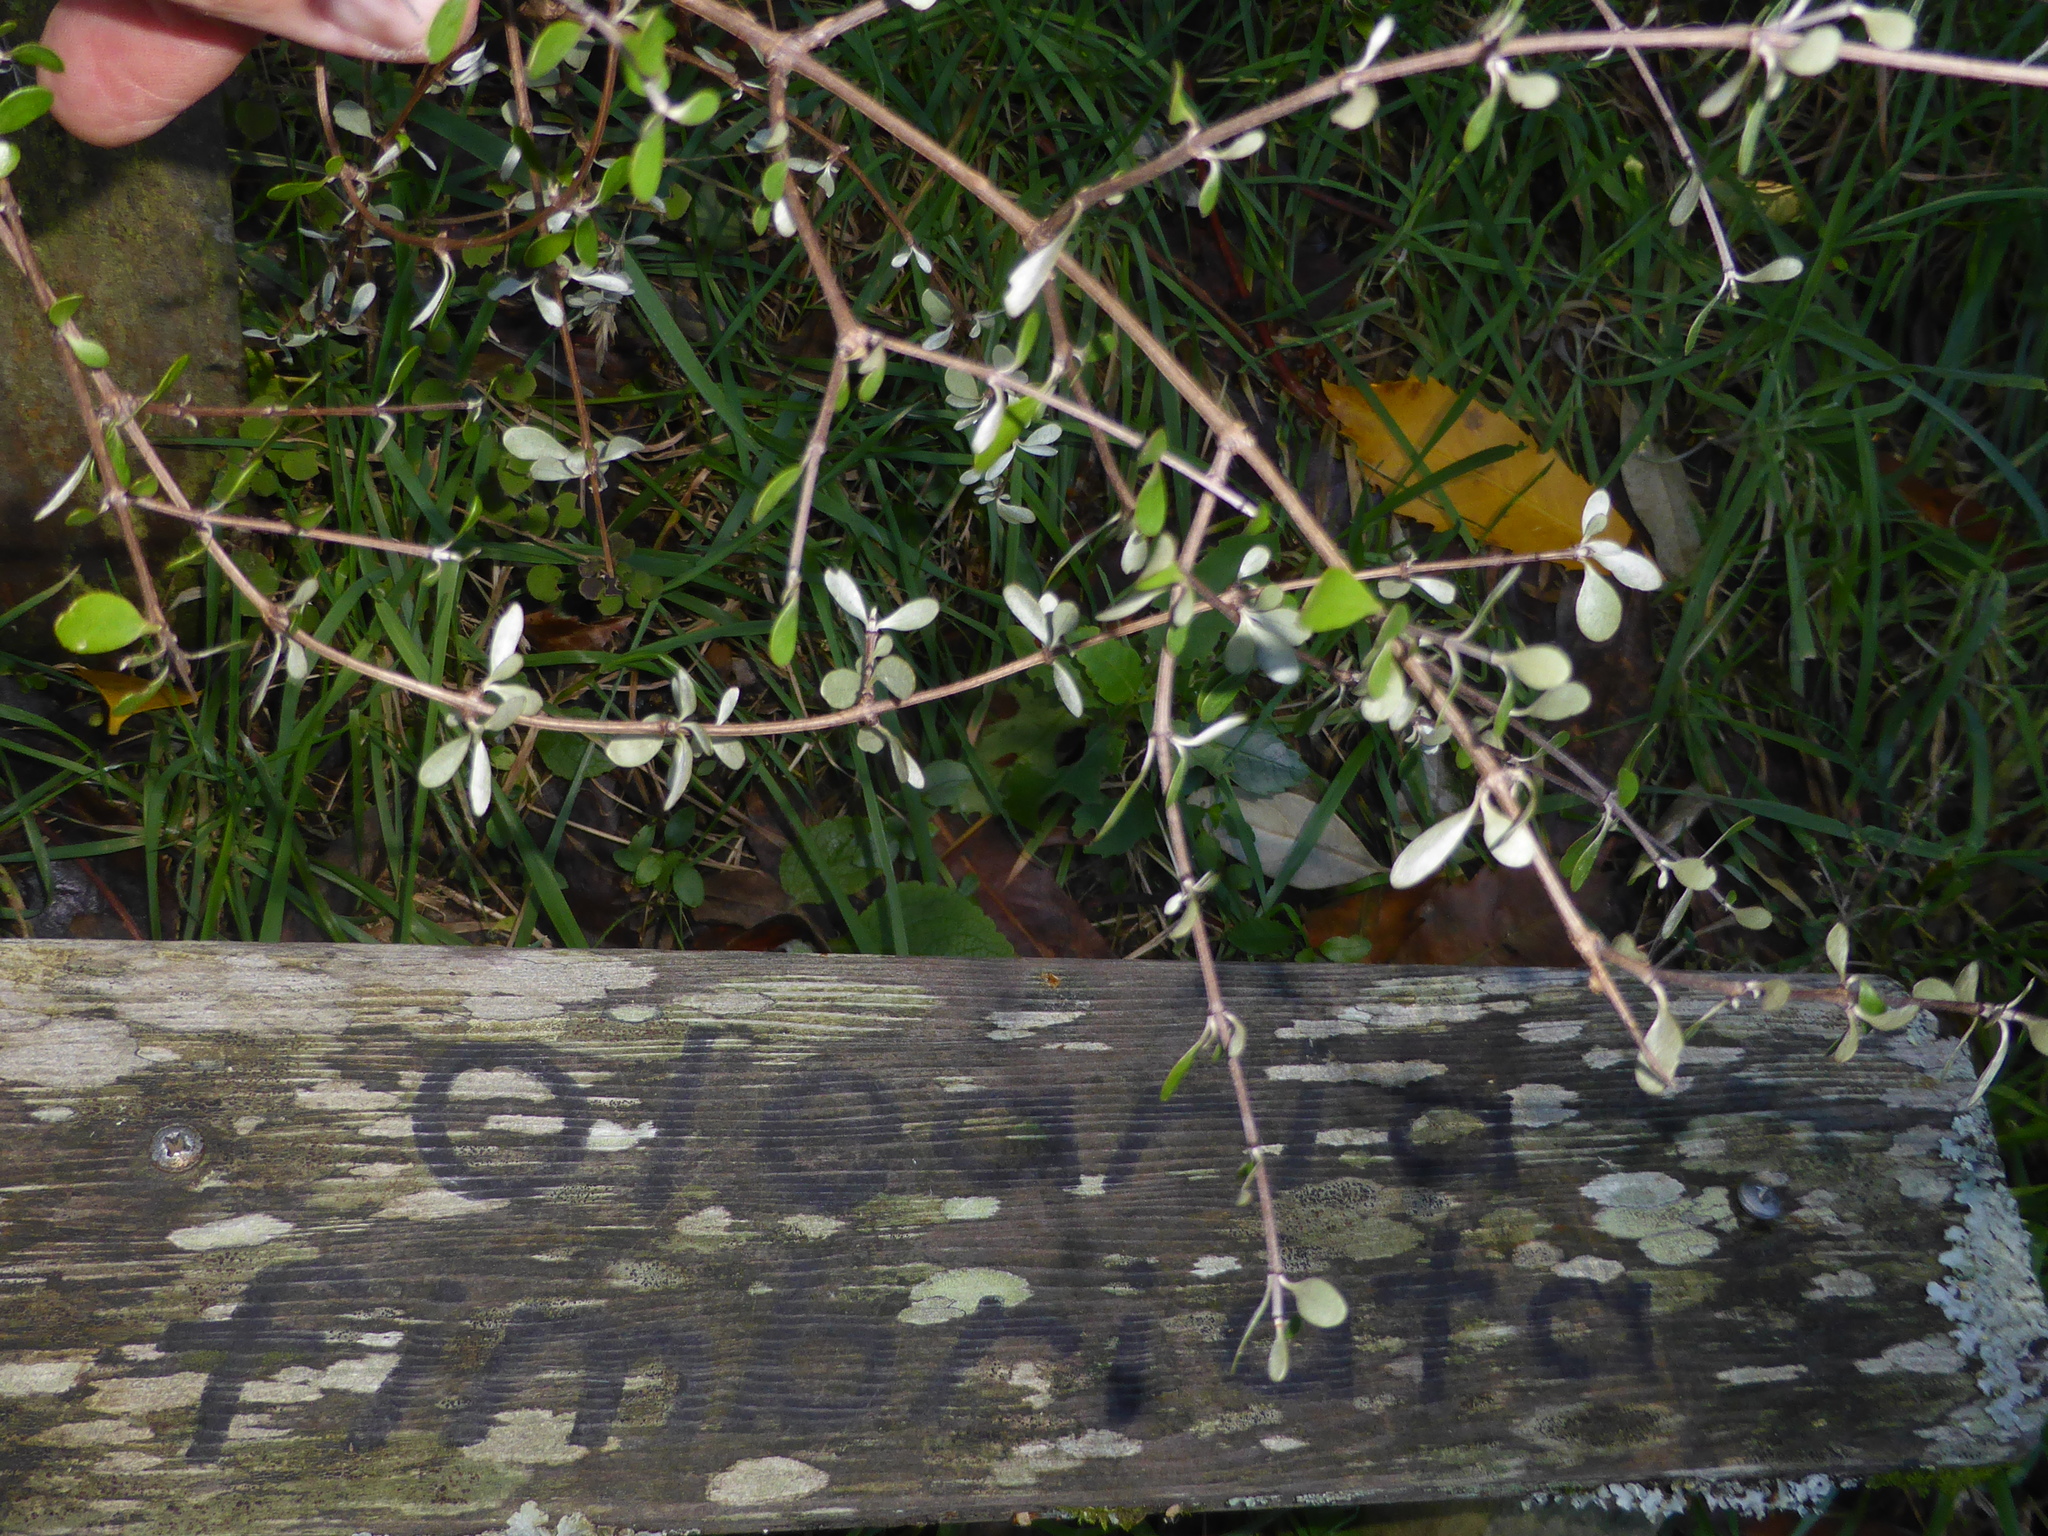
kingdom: Plantae
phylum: Tracheophyta
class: Magnoliopsida
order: Asterales
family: Asteraceae
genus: Olearia
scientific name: Olearia fimbriata
